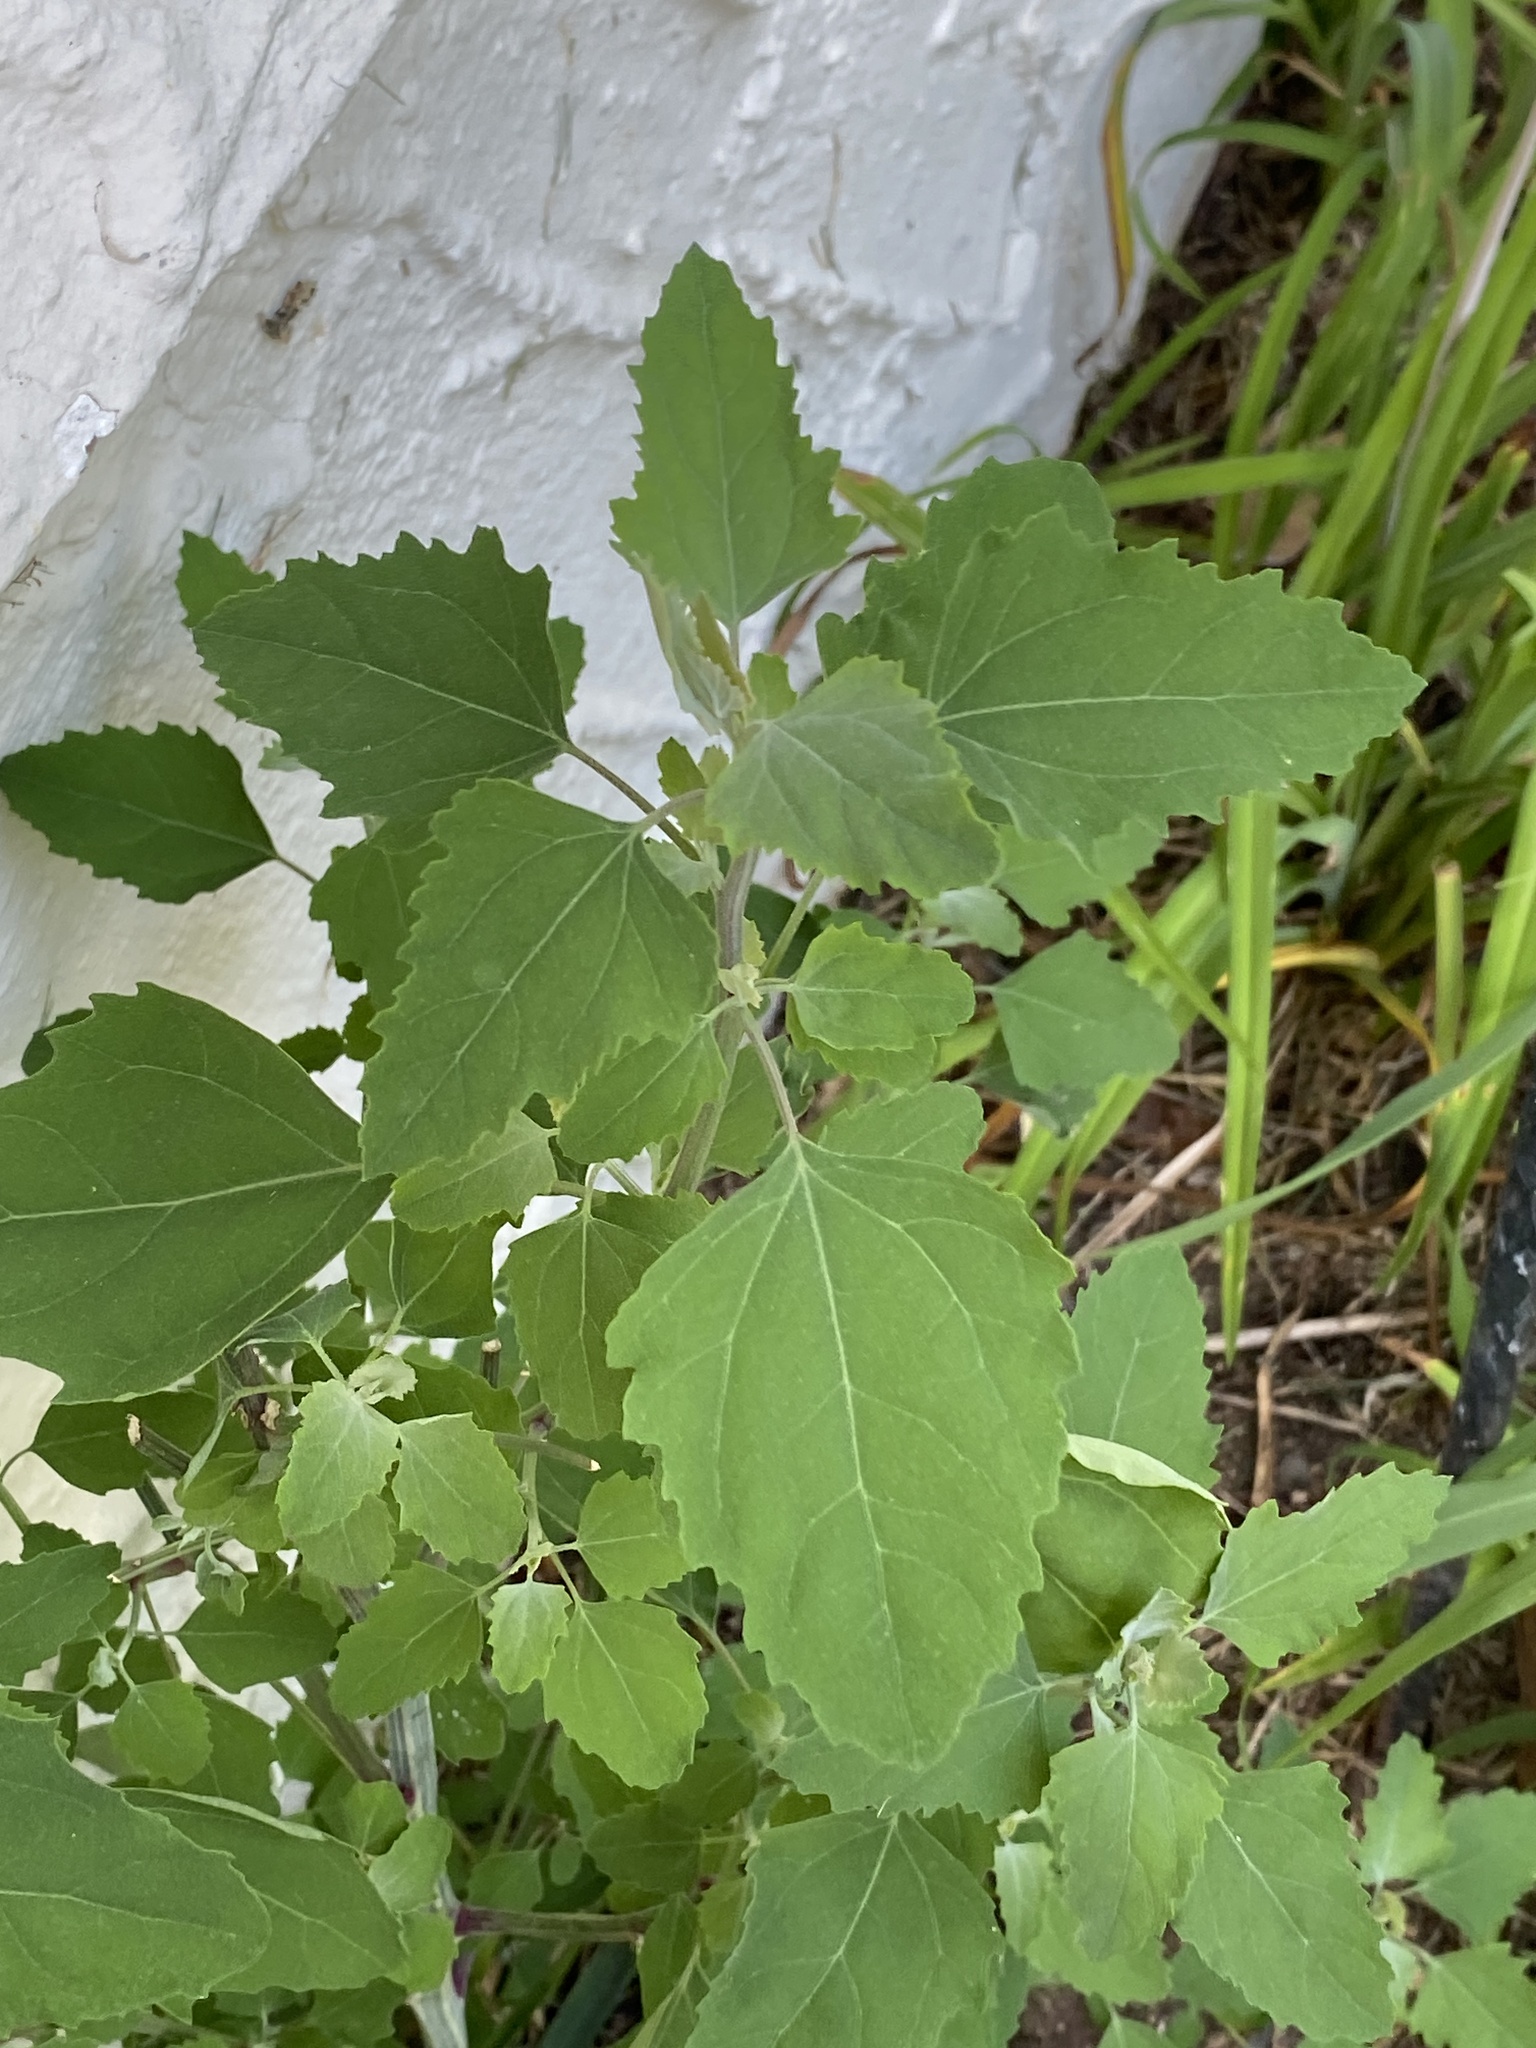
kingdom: Plantae
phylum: Tracheophyta
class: Magnoliopsida
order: Caryophyllales
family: Amaranthaceae
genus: Chenopodium
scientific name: Chenopodium album
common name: Fat-hen
